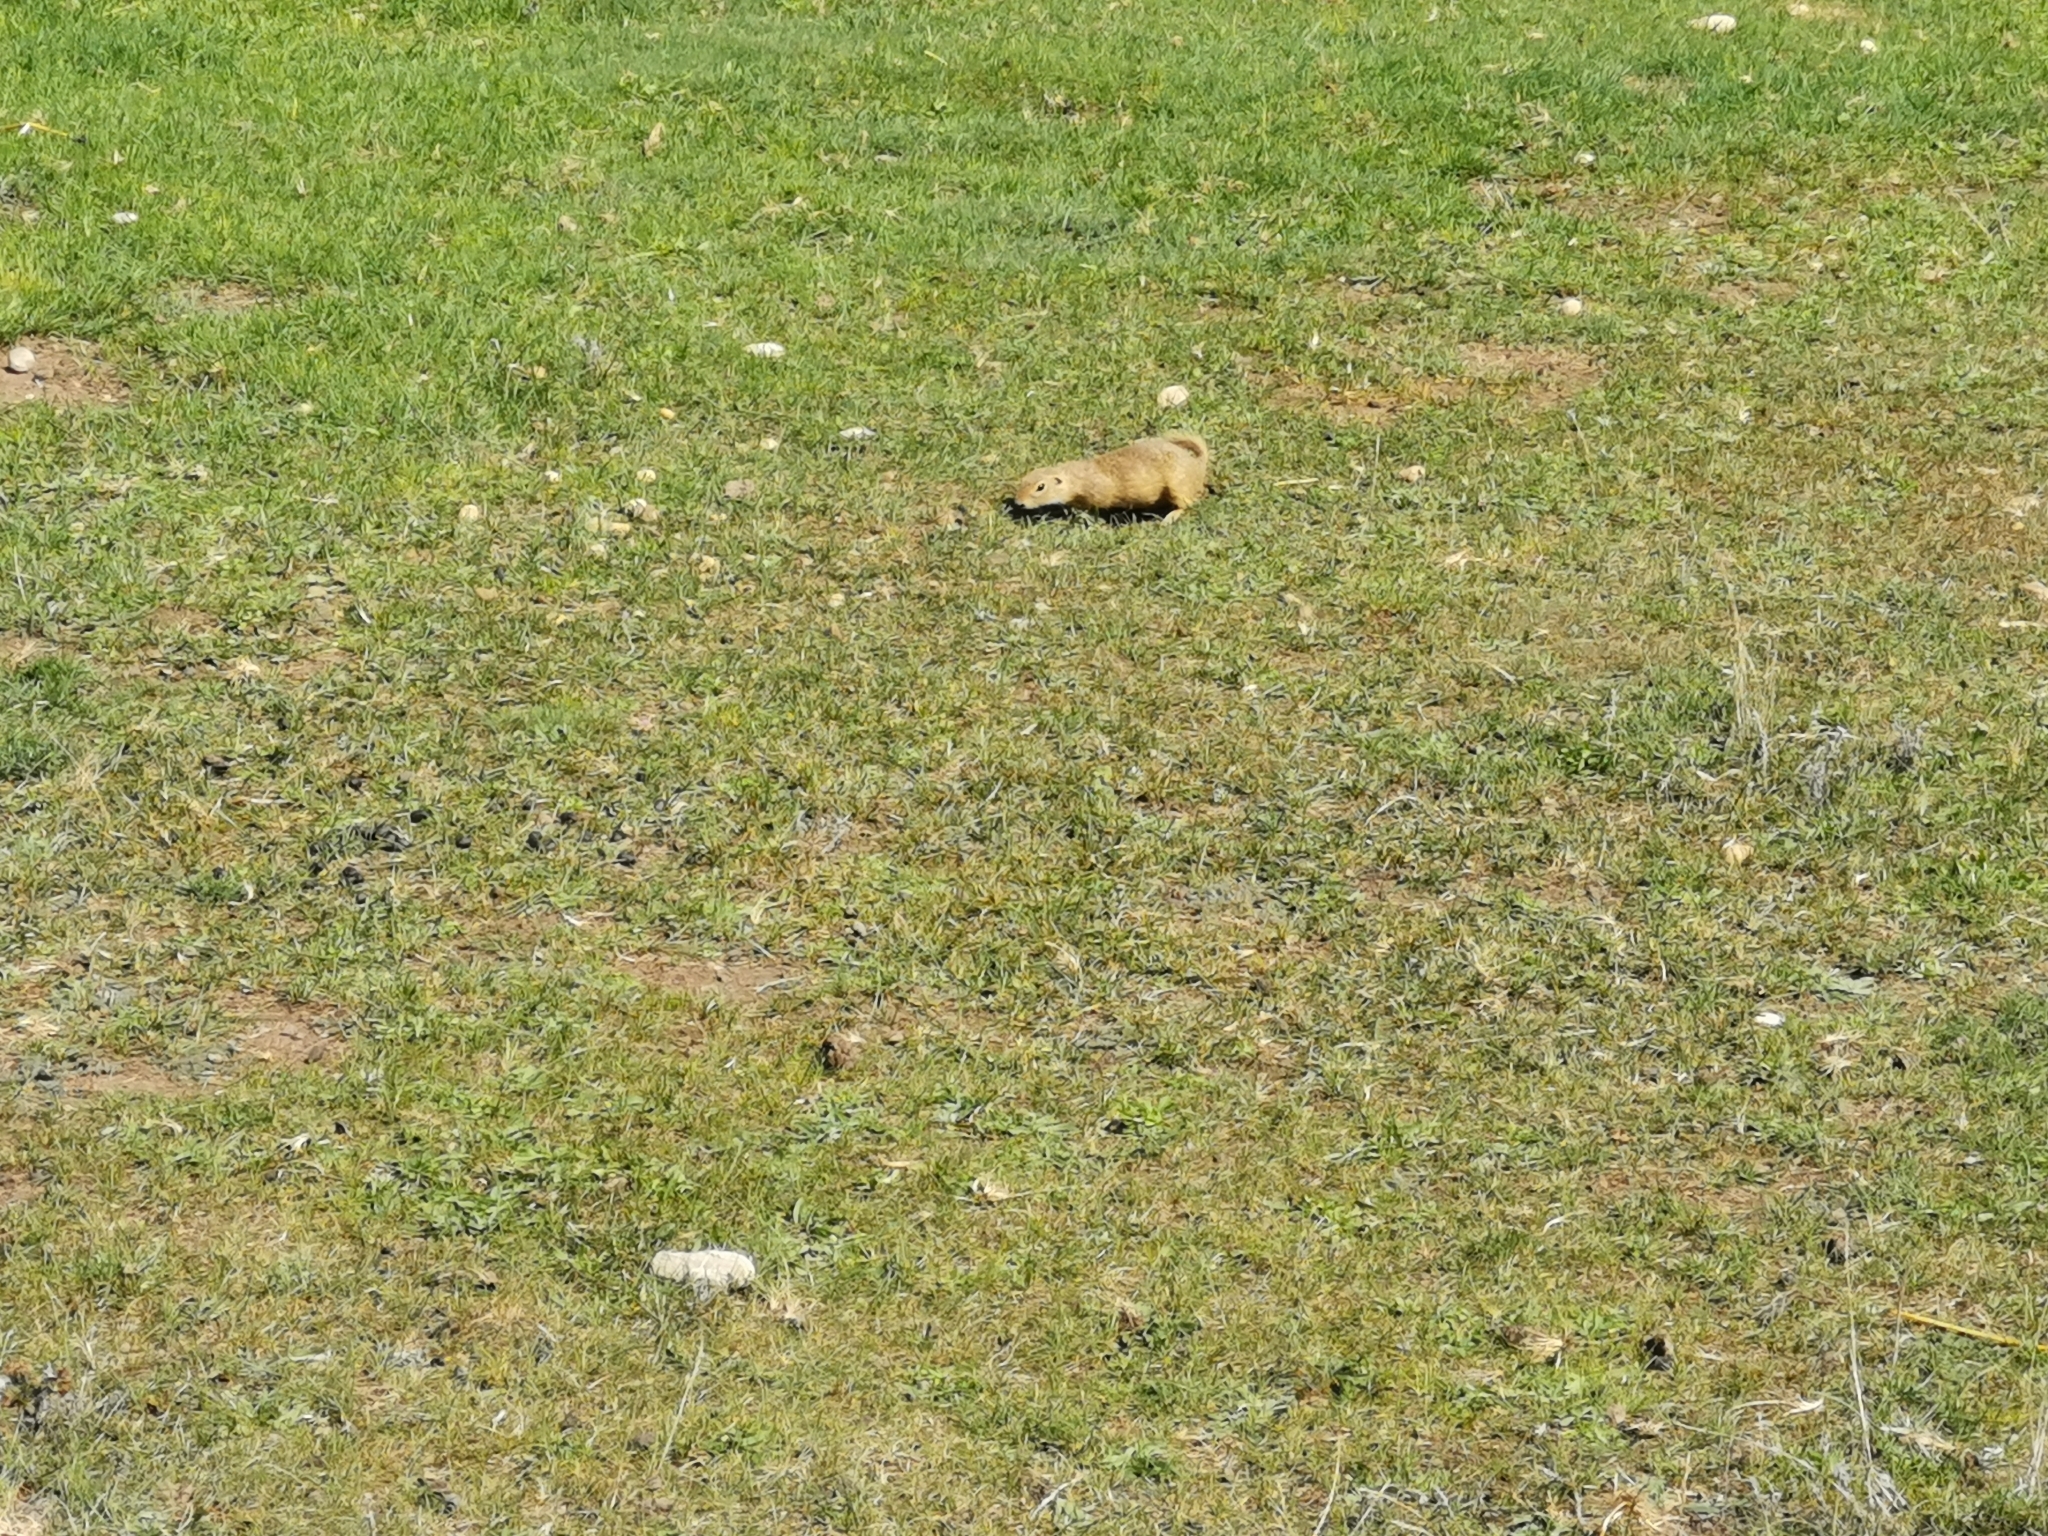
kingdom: Animalia
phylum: Chordata
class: Mammalia
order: Rodentia
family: Sciuridae
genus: Spermophilus
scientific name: Spermophilus citellus
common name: European ground squirrel
